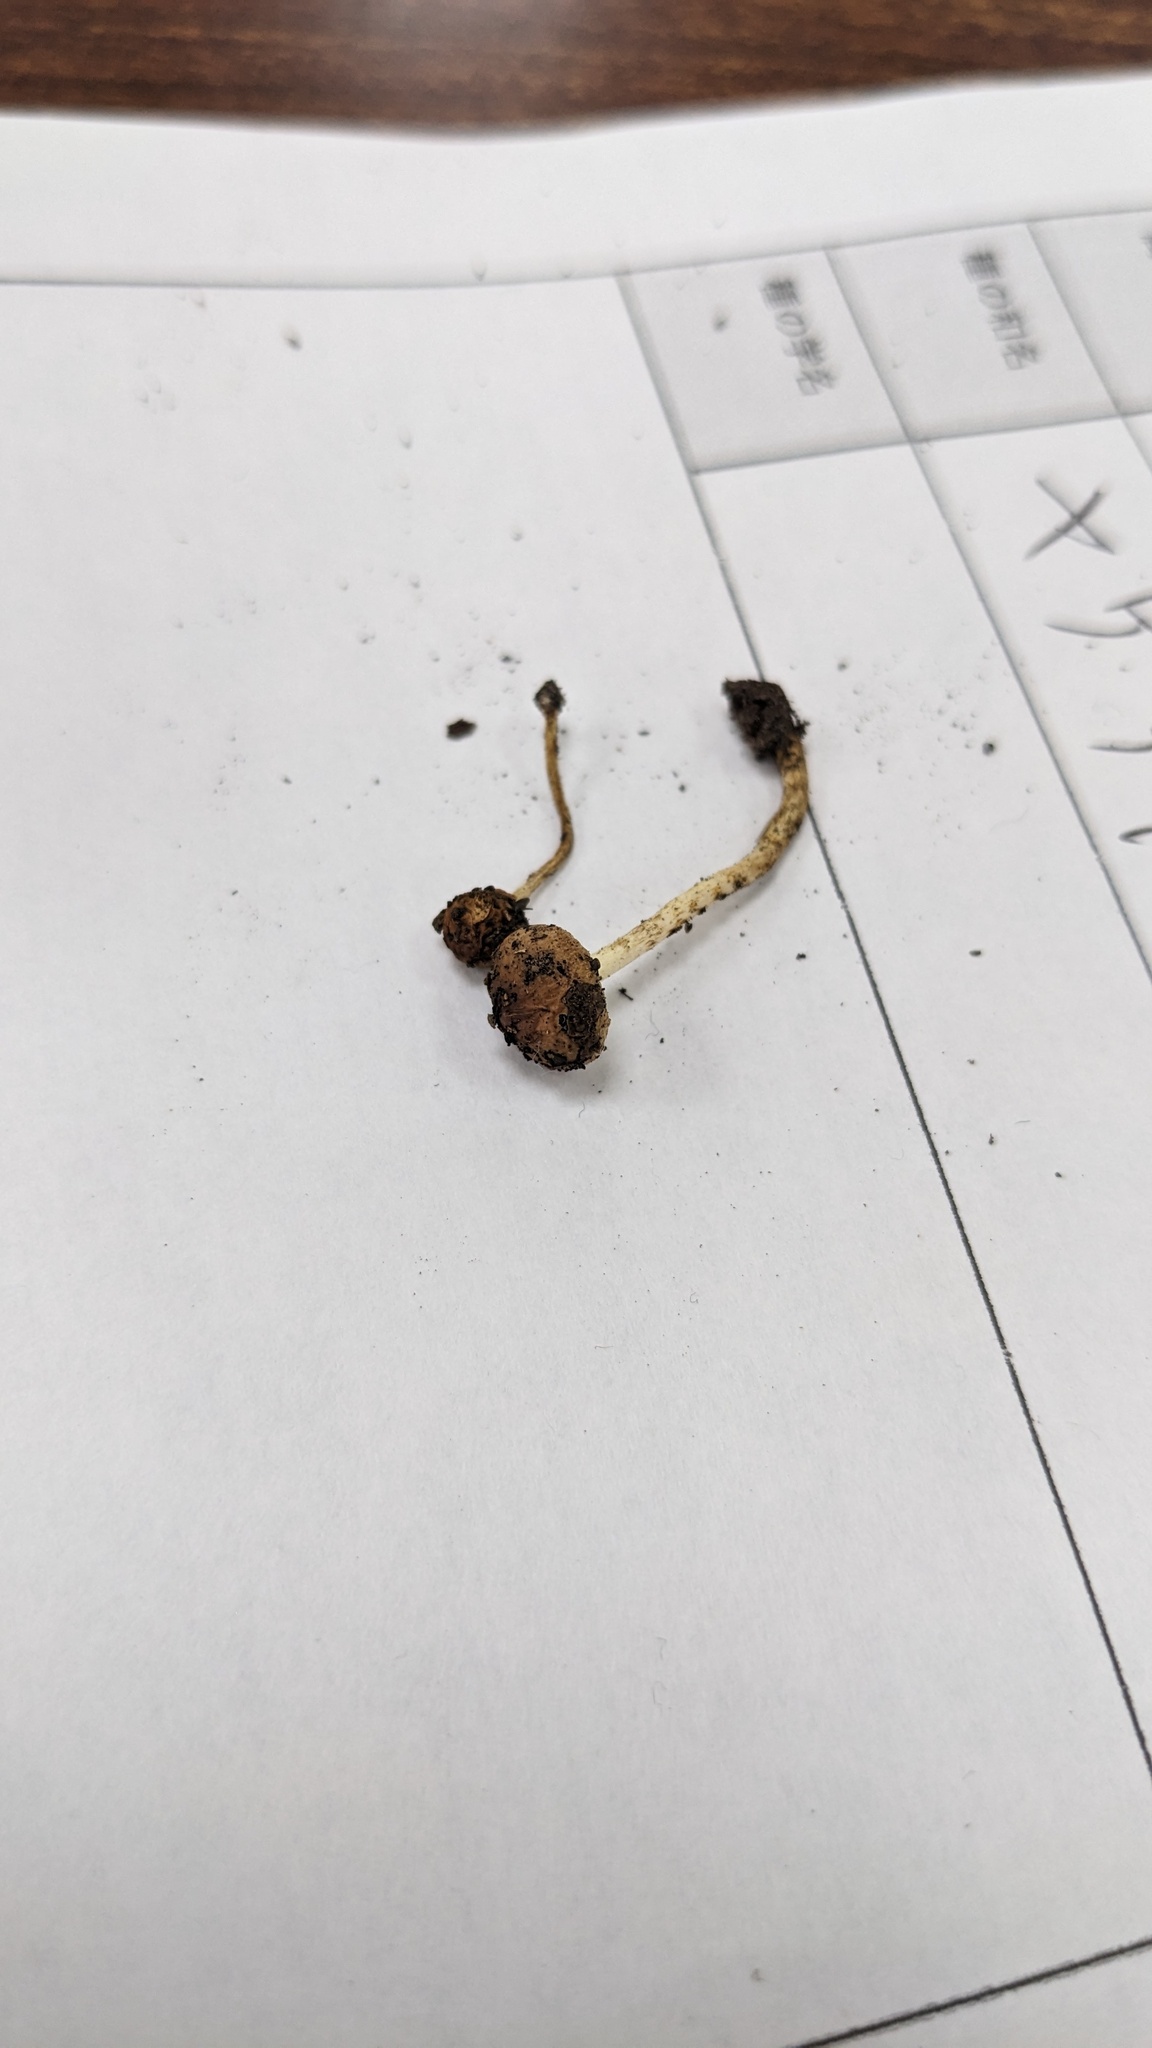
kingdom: Fungi
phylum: Basidiomycota
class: Agaricomycetes
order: Agaricales
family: Strophariaceae
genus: Pholiota
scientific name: Pholiota carbonaria
